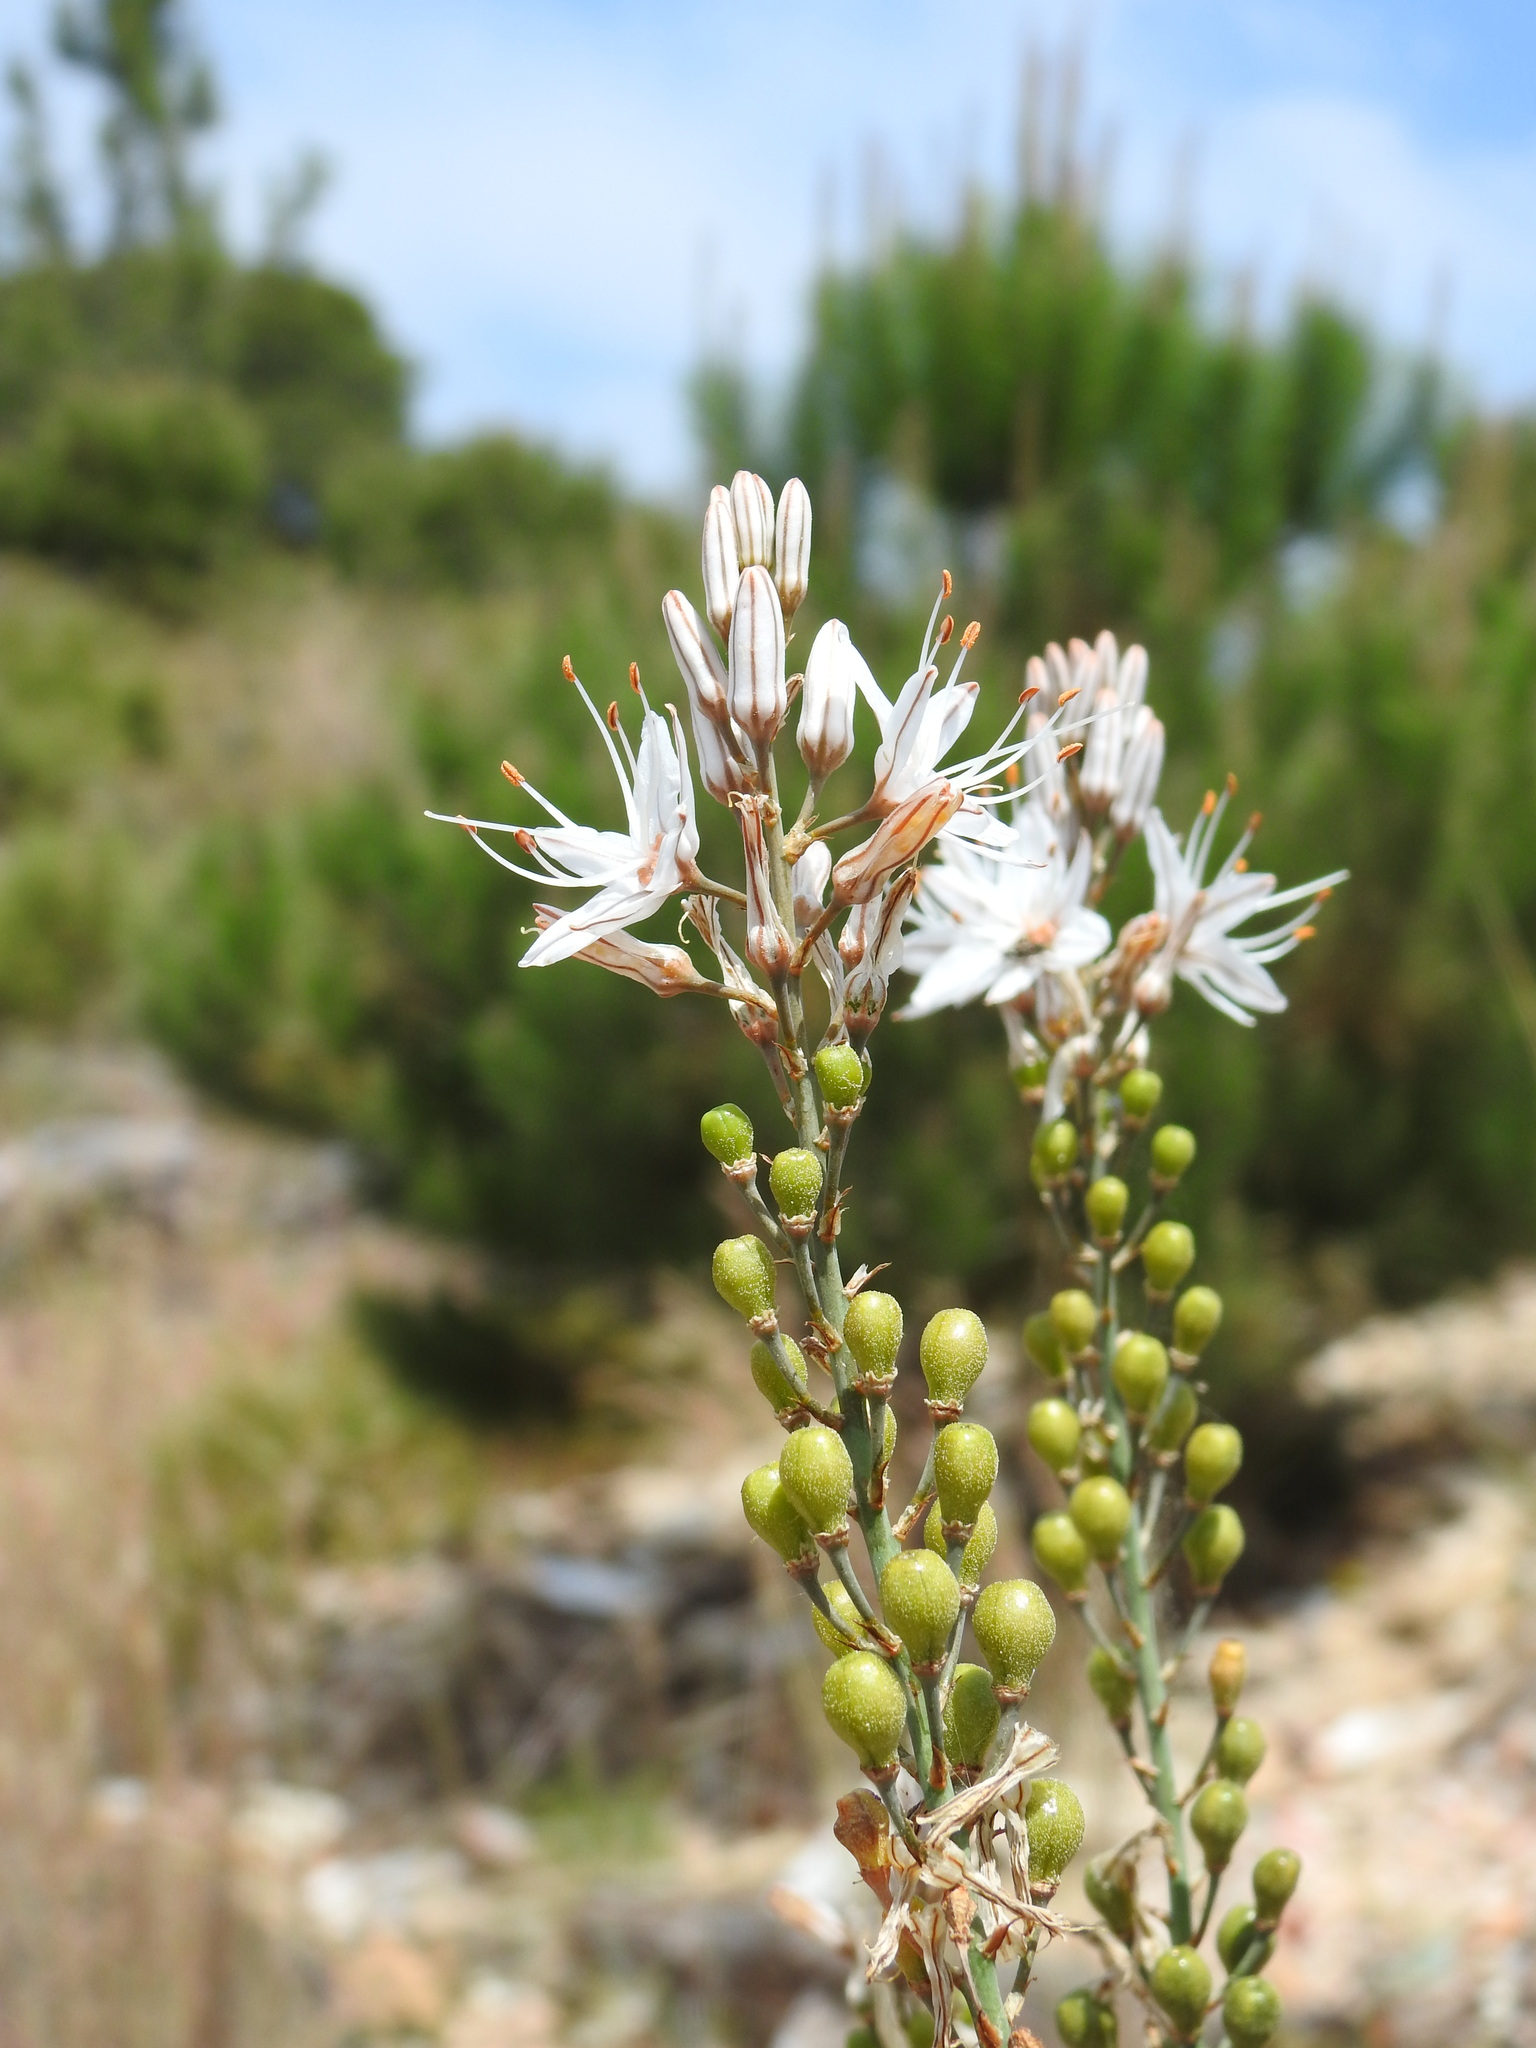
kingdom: Plantae
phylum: Tracheophyta
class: Liliopsida
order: Asparagales
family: Asphodelaceae
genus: Asphodelus
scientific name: Asphodelus serotinus
